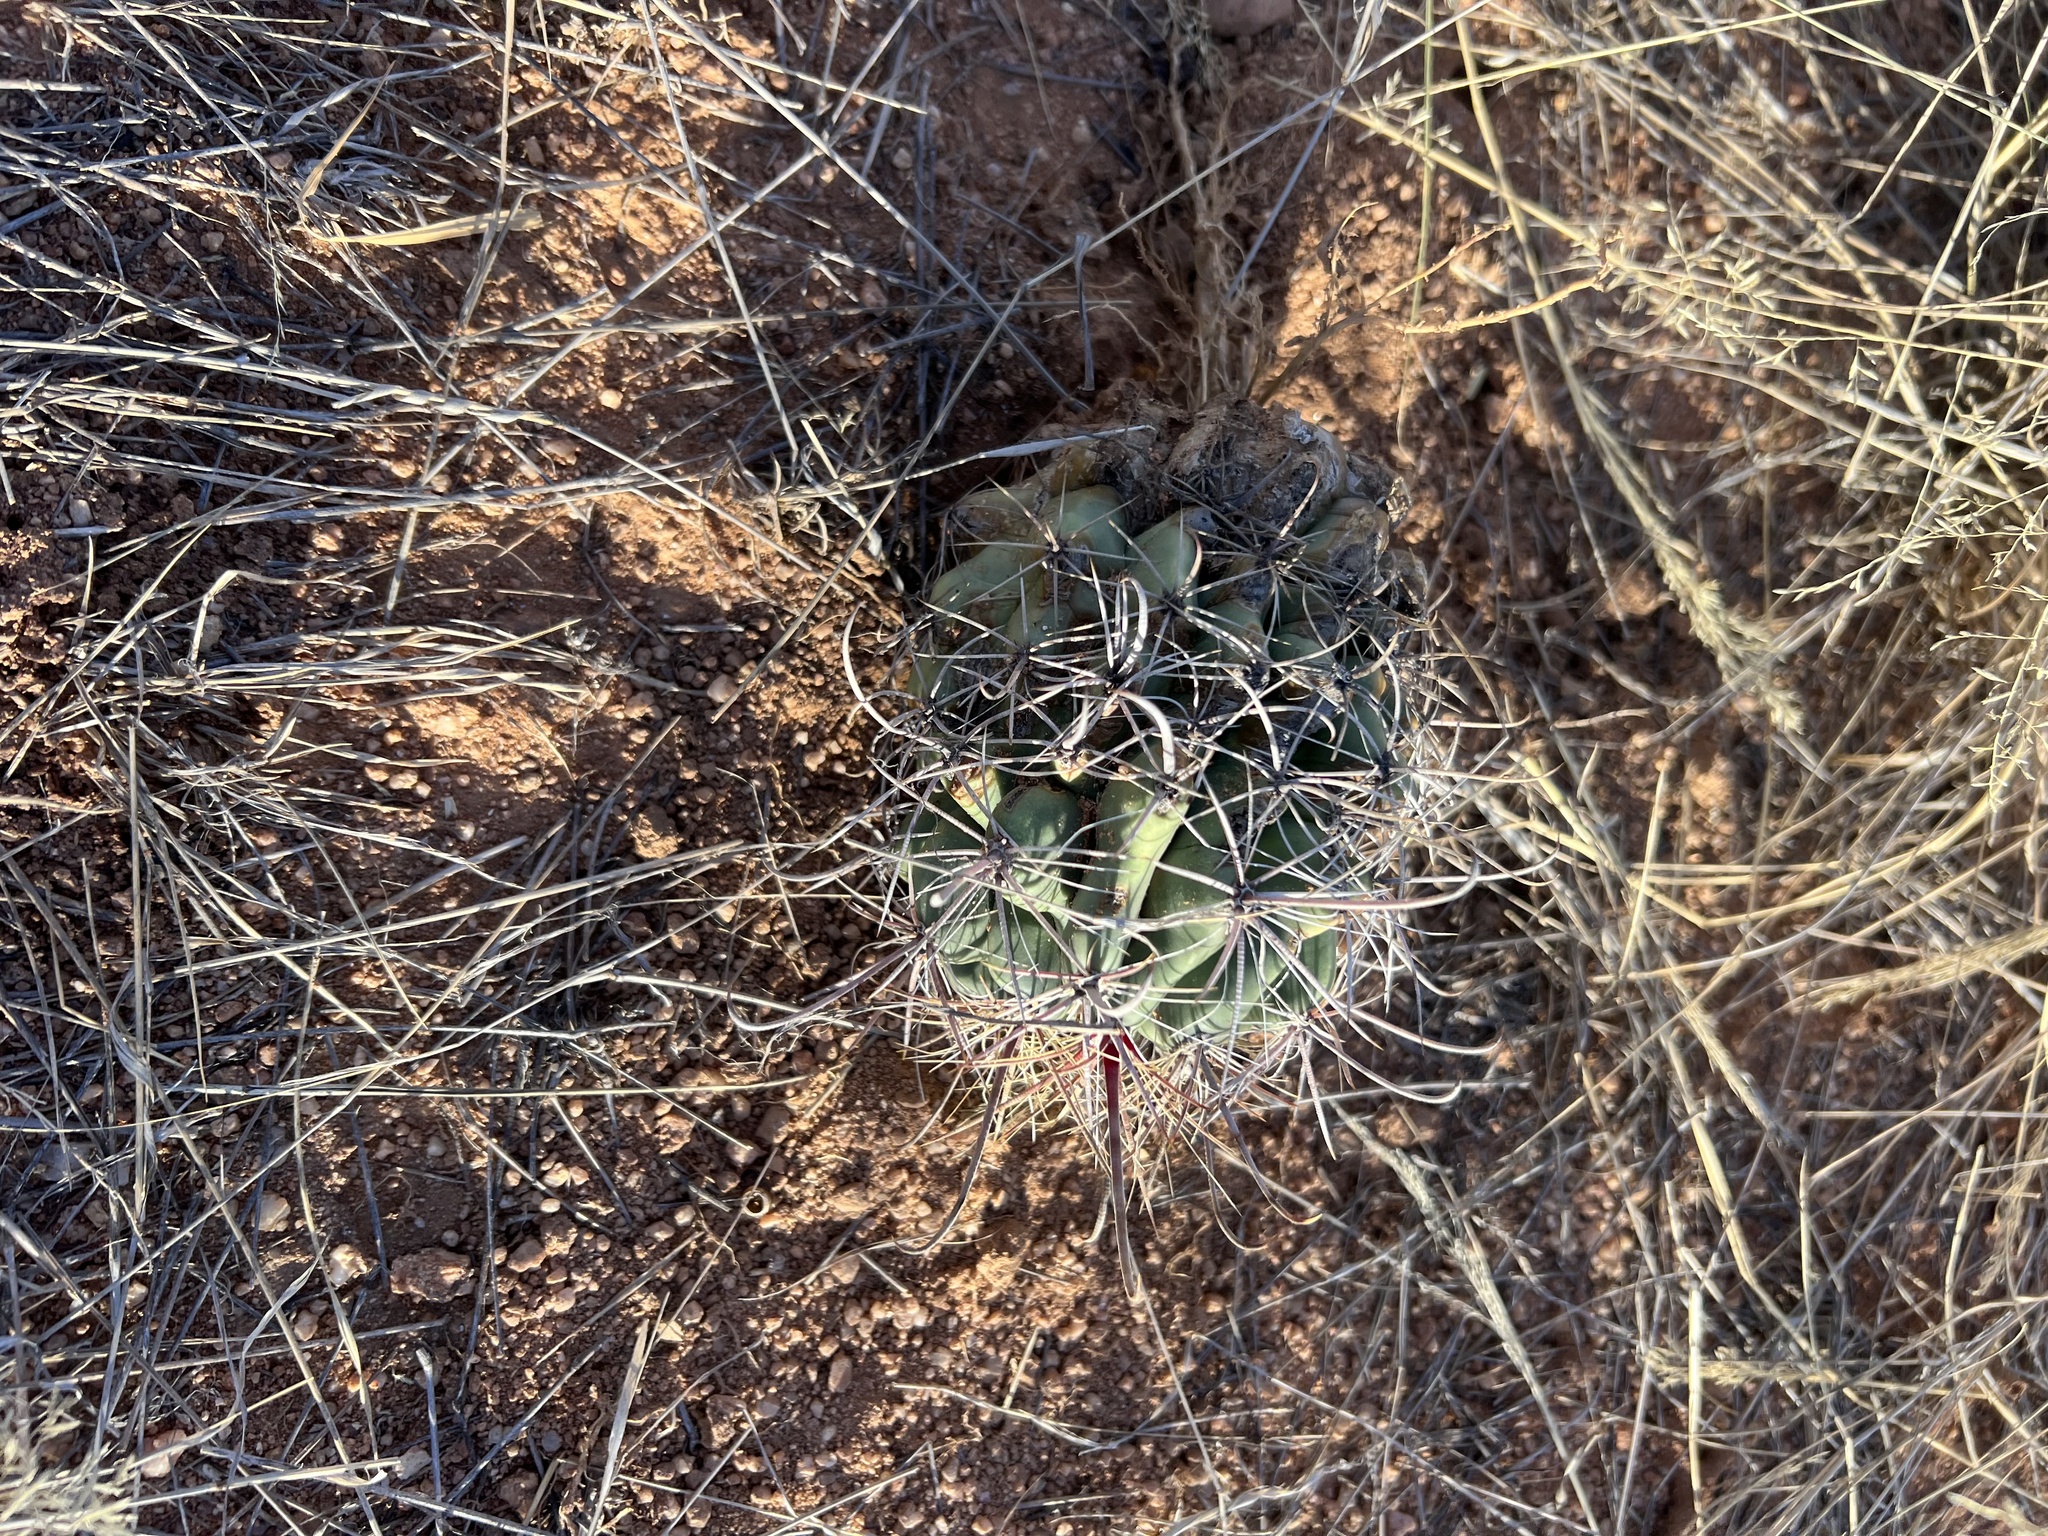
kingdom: Plantae
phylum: Tracheophyta
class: Magnoliopsida
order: Caryophyllales
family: Cactaceae
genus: Ferocactus
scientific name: Ferocactus wislizeni
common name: Candy barrel cactus
